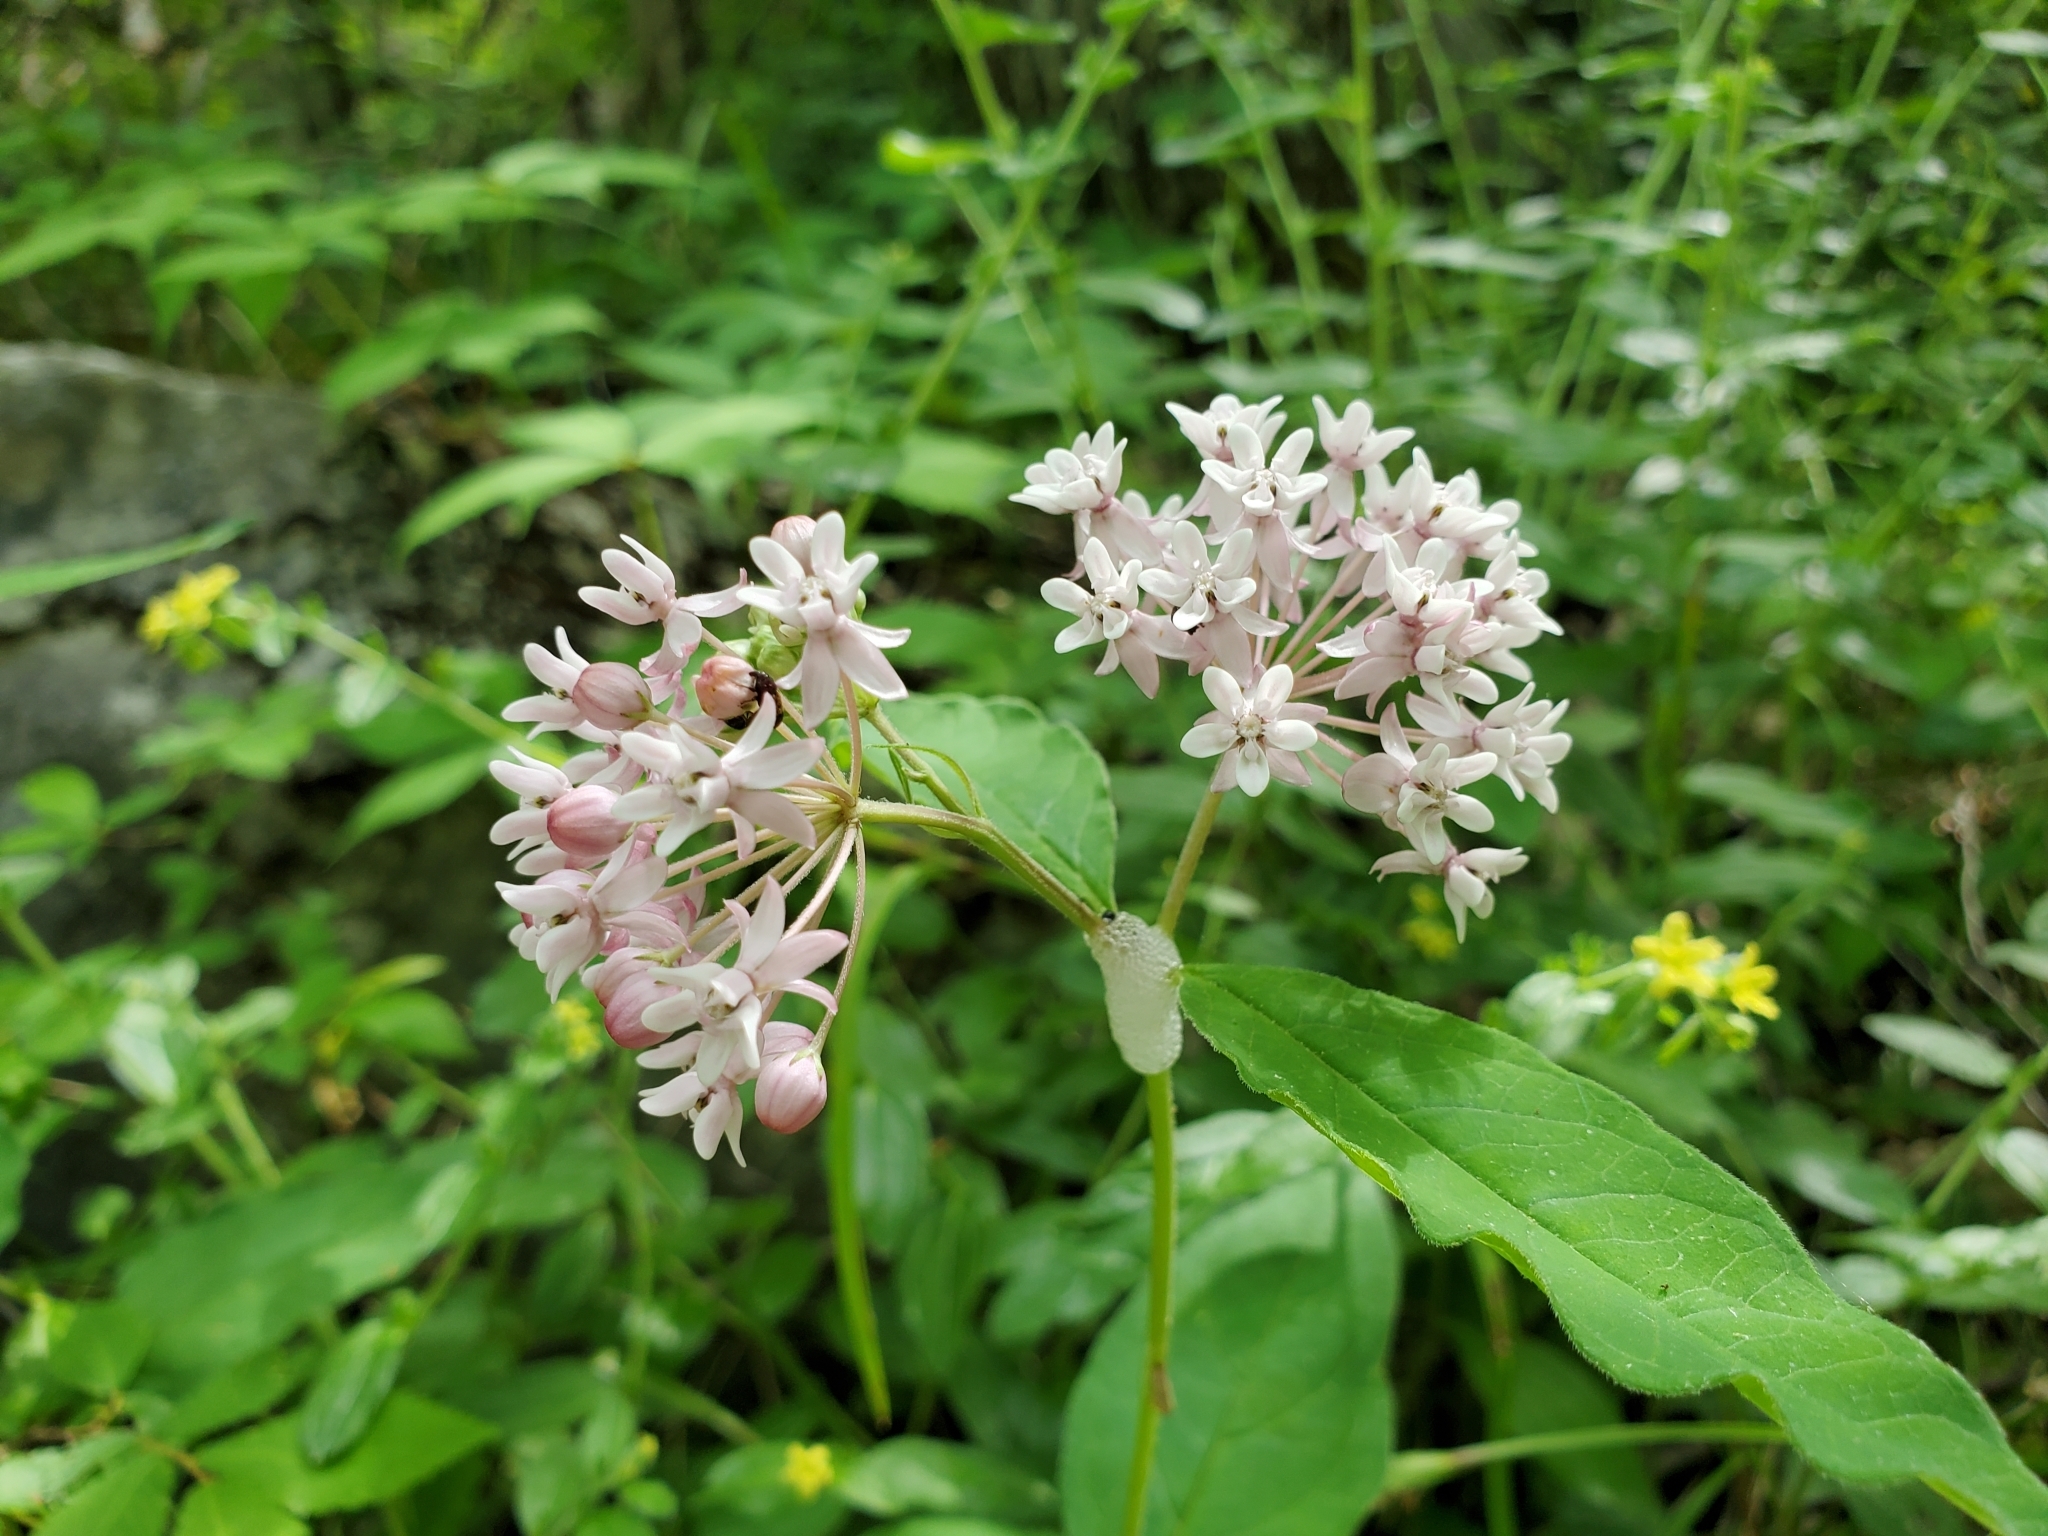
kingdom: Plantae
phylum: Tracheophyta
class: Magnoliopsida
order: Gentianales
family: Apocynaceae
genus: Asclepias
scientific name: Asclepias quadrifolia
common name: Whorled milkweed
